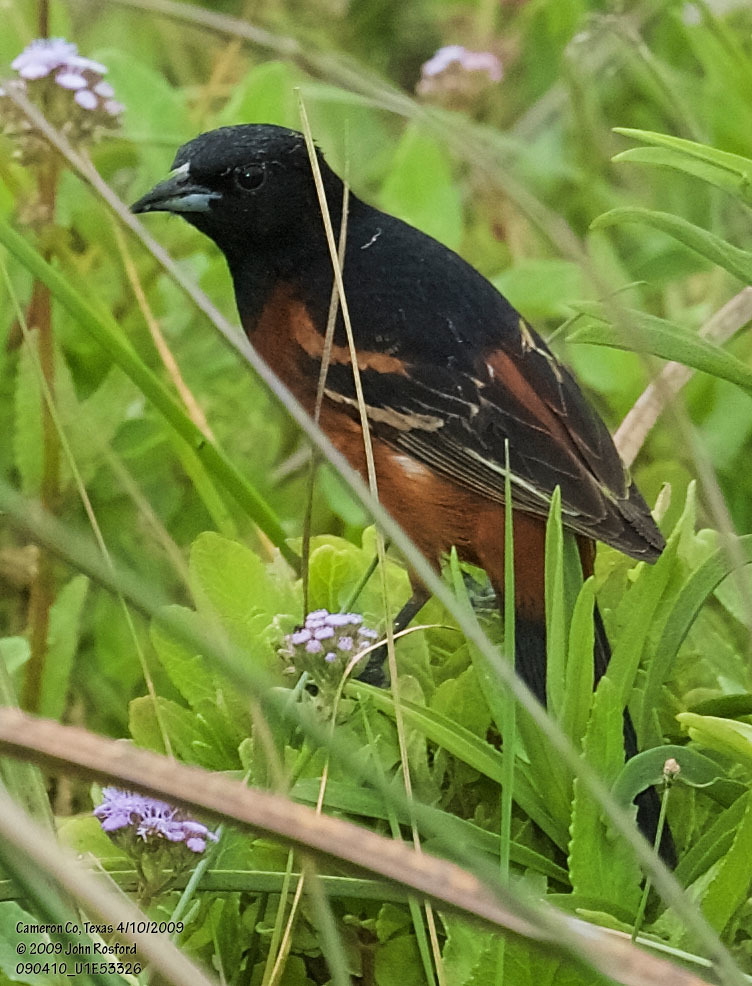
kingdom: Animalia
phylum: Chordata
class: Aves
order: Passeriformes
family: Icteridae
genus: Icterus
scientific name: Icterus spurius
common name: Orchard oriole
